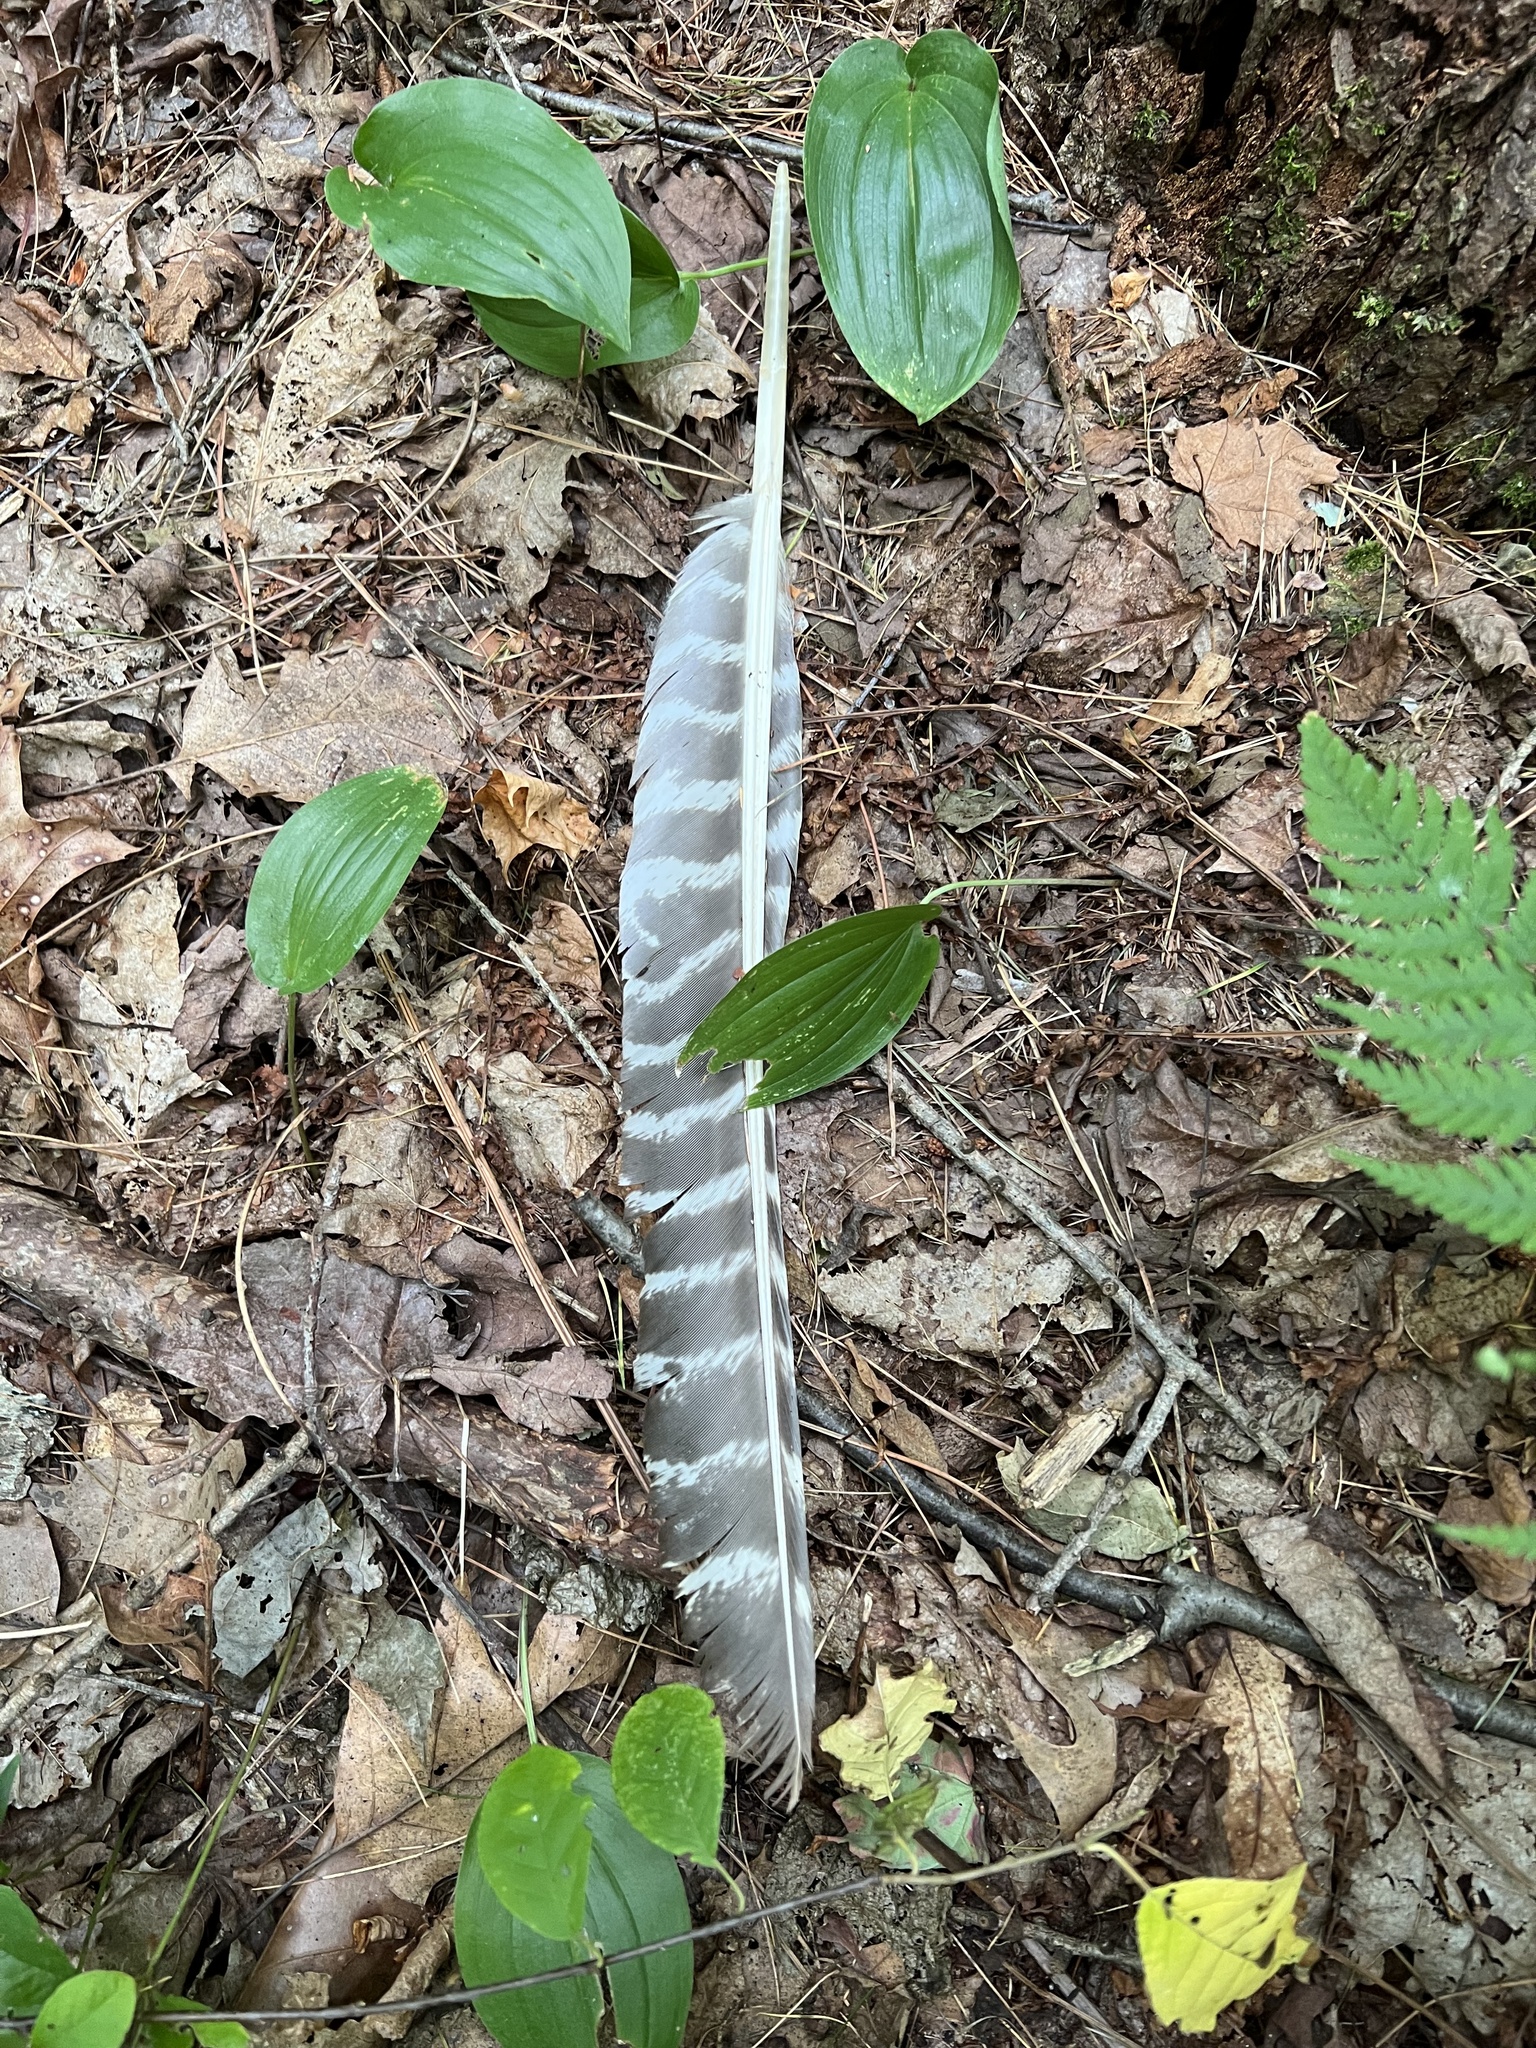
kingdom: Animalia
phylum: Chordata
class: Aves
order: Galliformes
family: Phasianidae
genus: Meleagris
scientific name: Meleagris gallopavo
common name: Wild turkey
